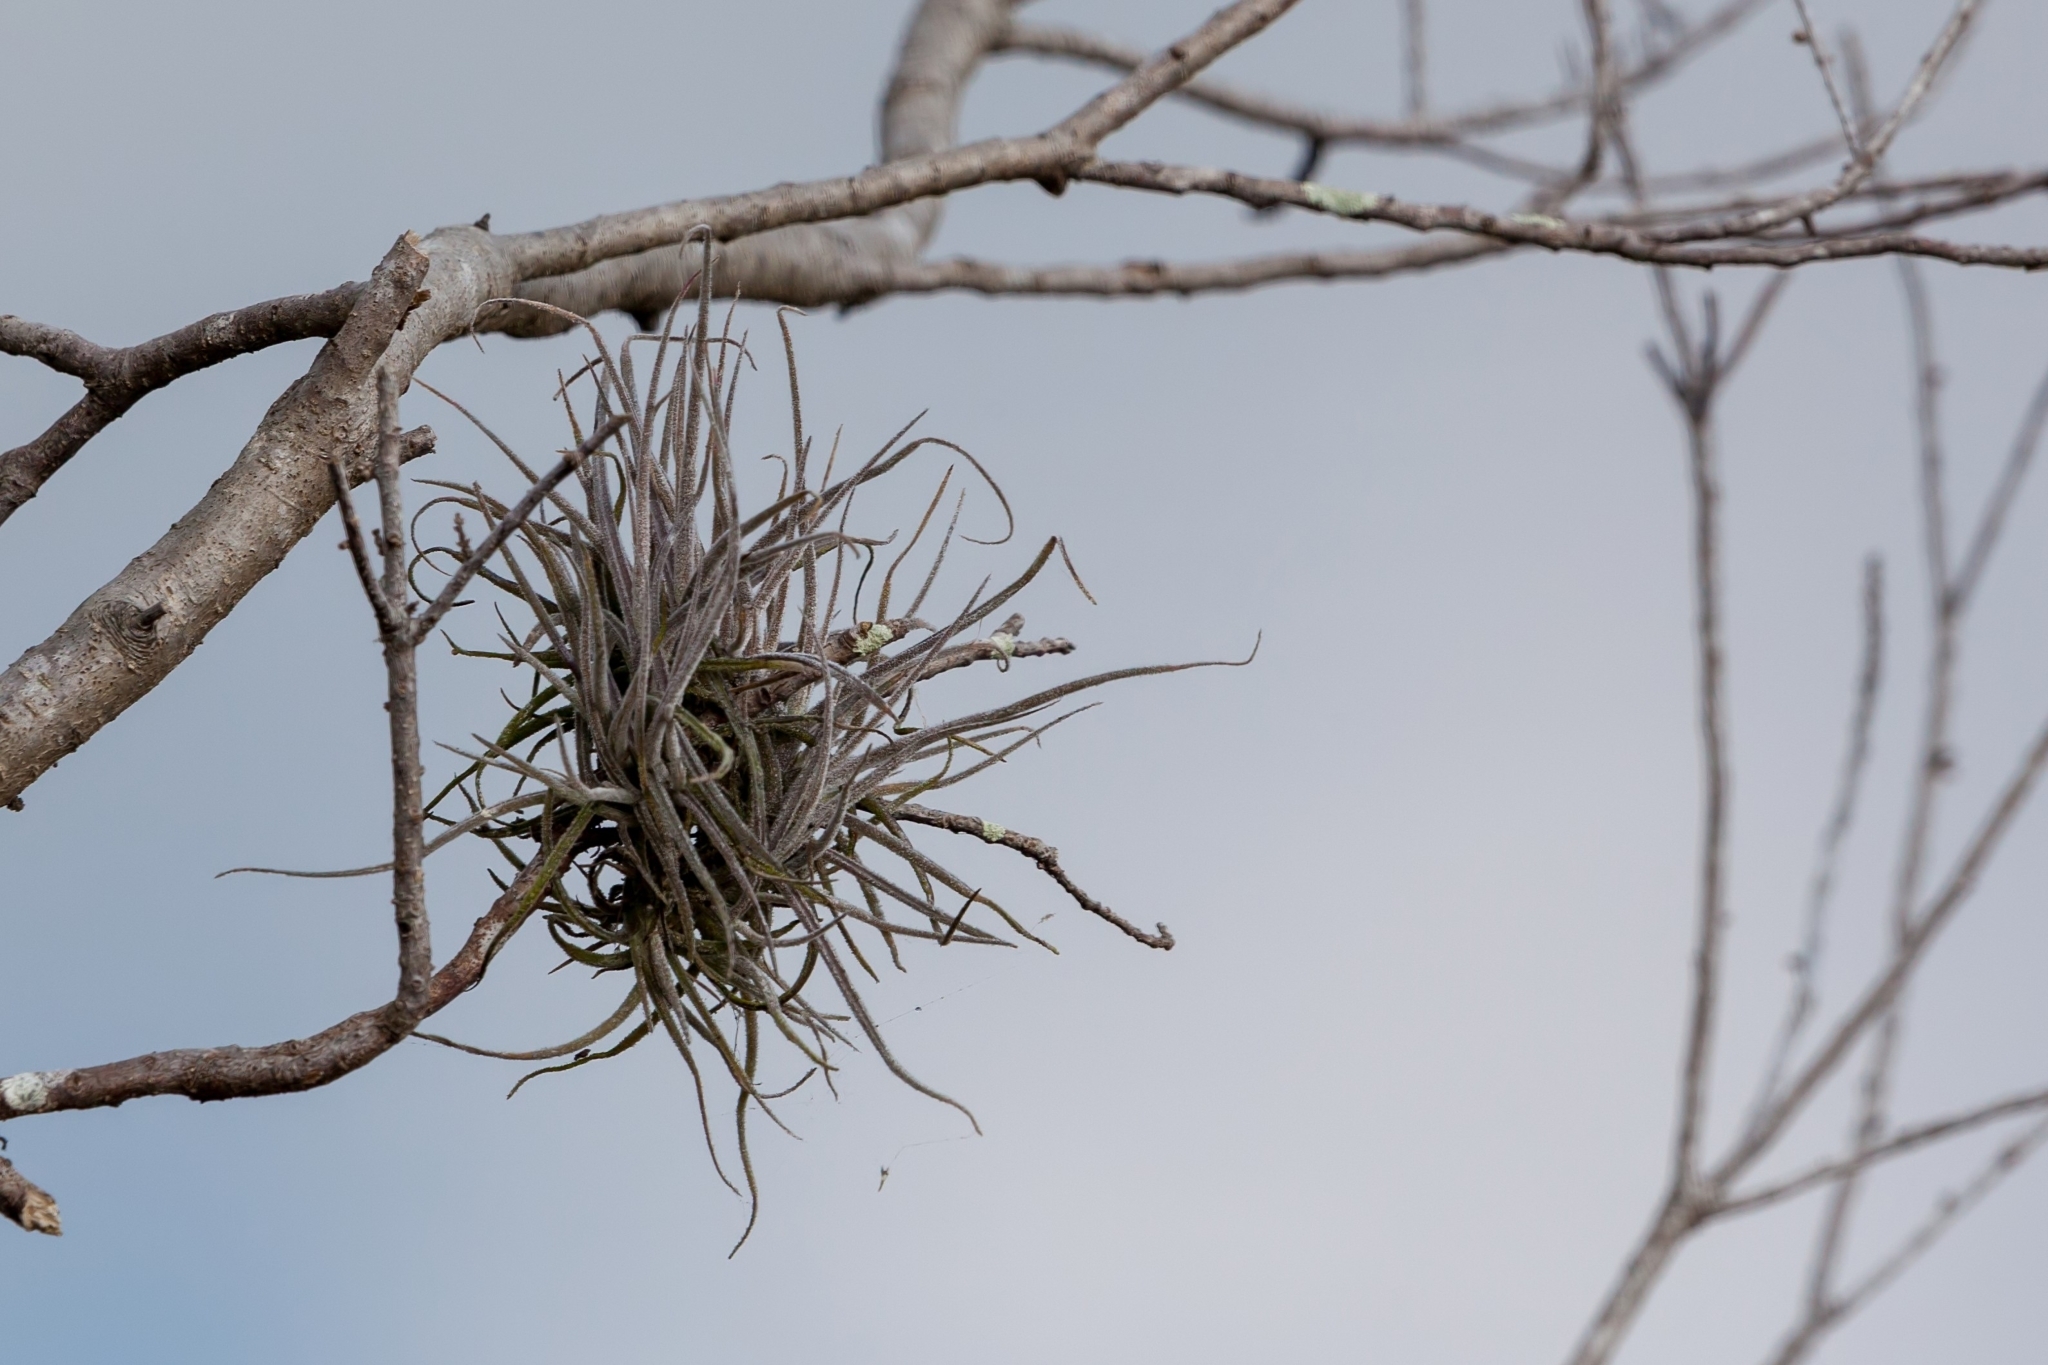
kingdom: Plantae
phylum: Tracheophyta
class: Liliopsida
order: Poales
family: Bromeliaceae
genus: Tillandsia
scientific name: Tillandsia recurvata
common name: Small ballmoss
